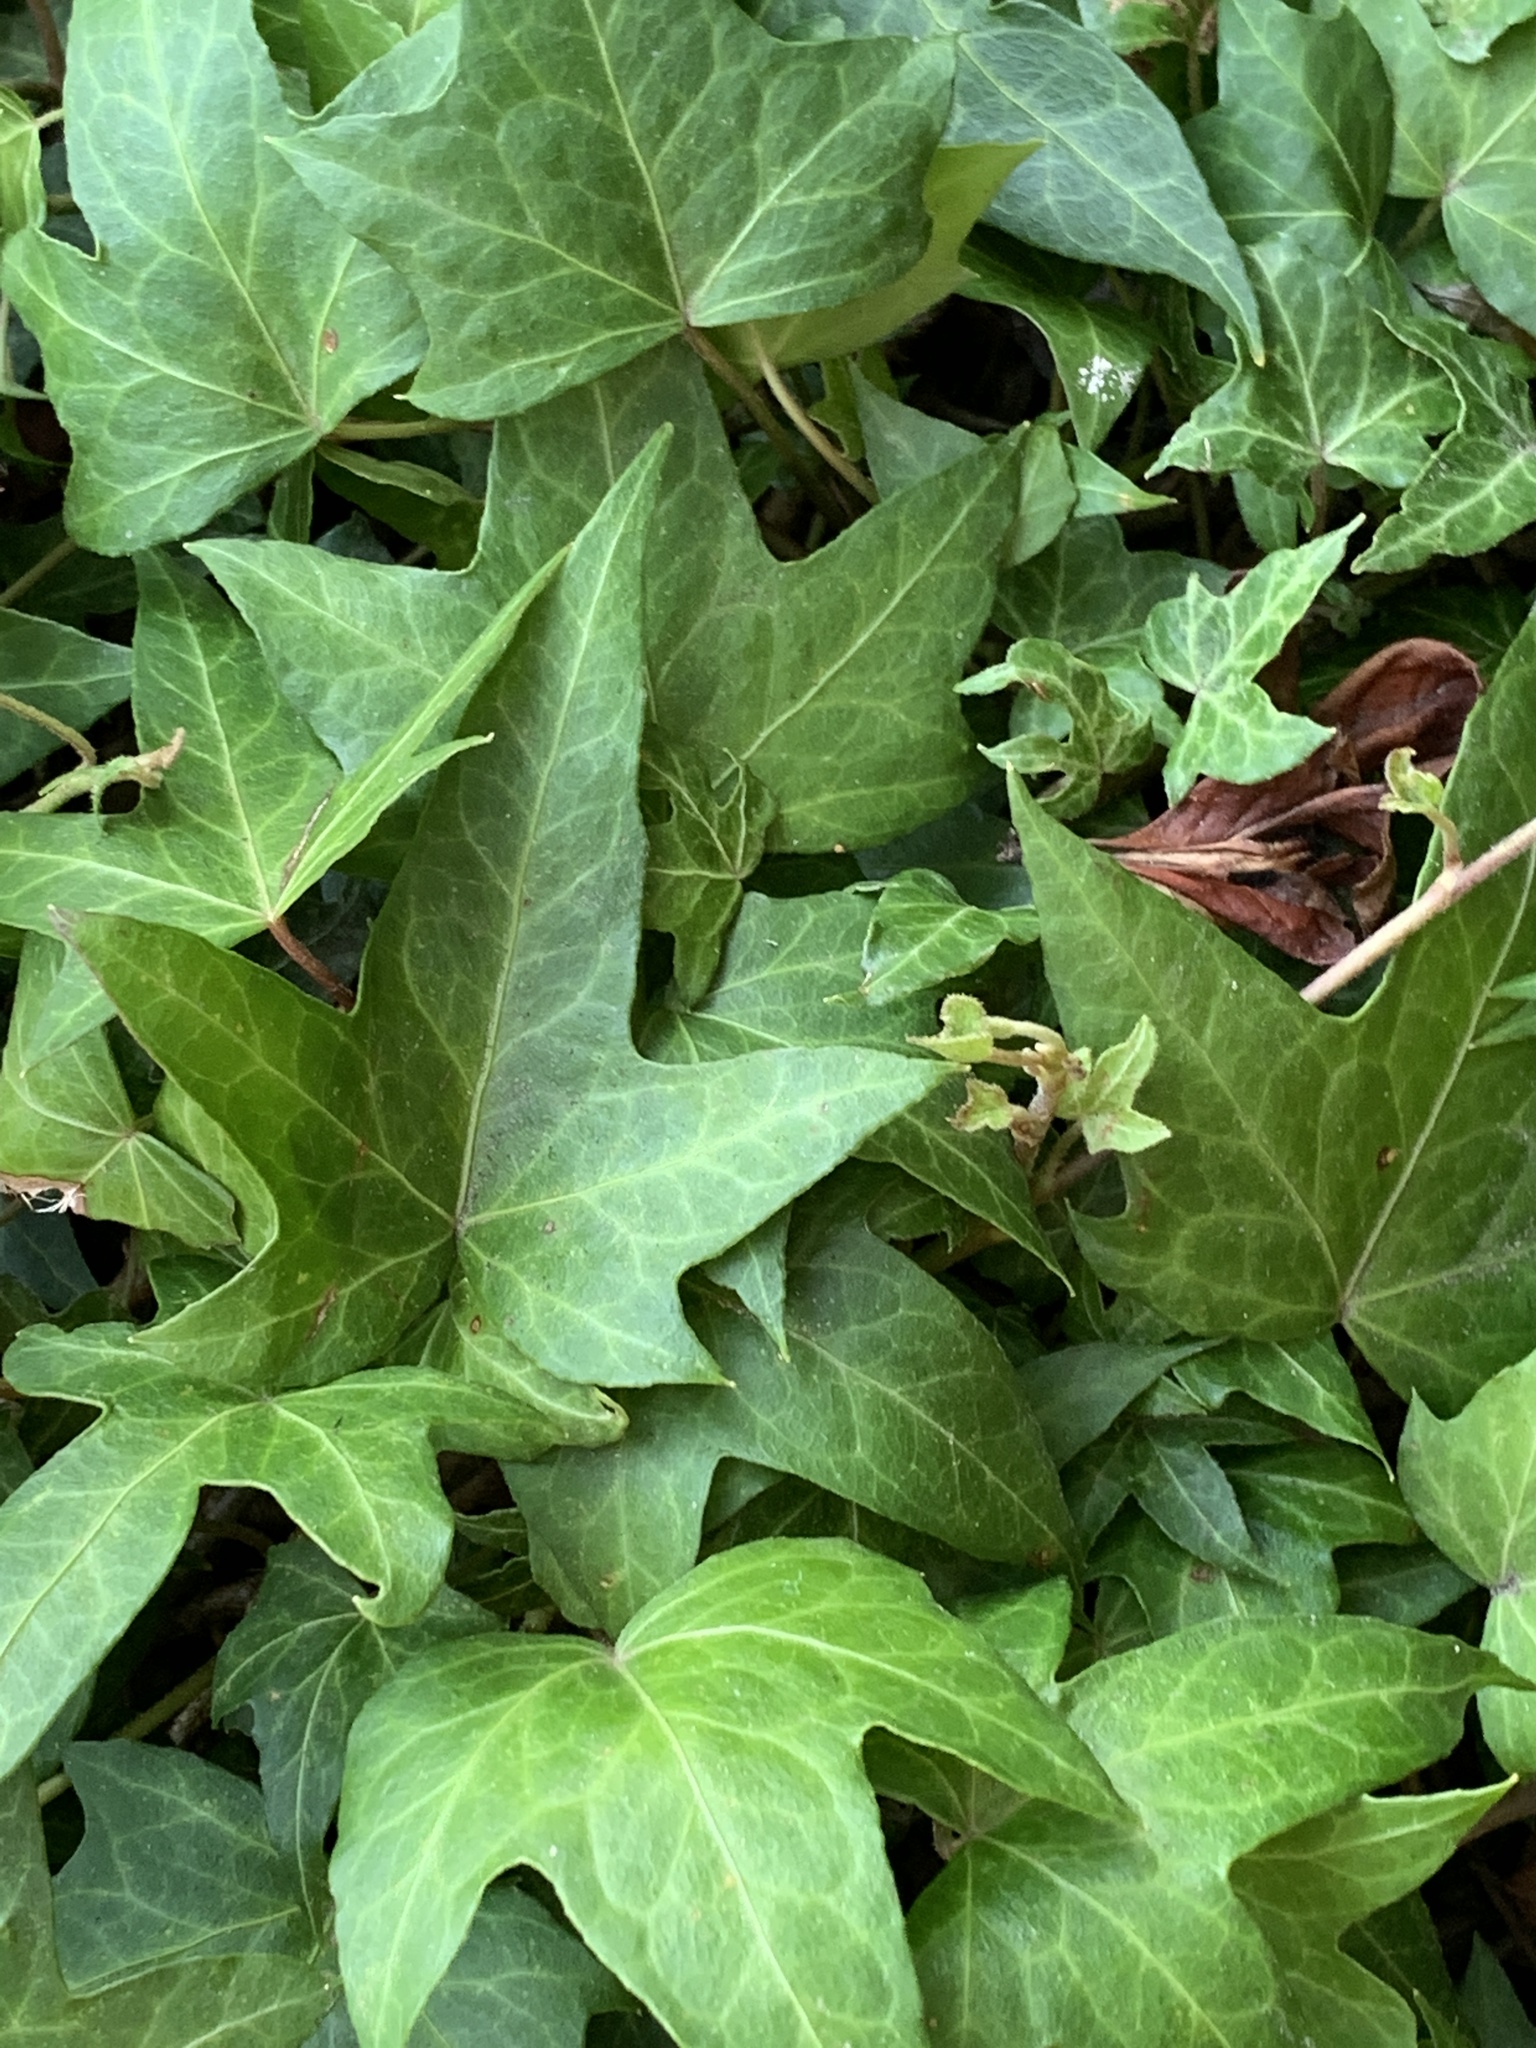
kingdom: Plantae
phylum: Tracheophyta
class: Magnoliopsida
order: Apiales
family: Araliaceae
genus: Hedera
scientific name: Hedera helix
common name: Ivy
